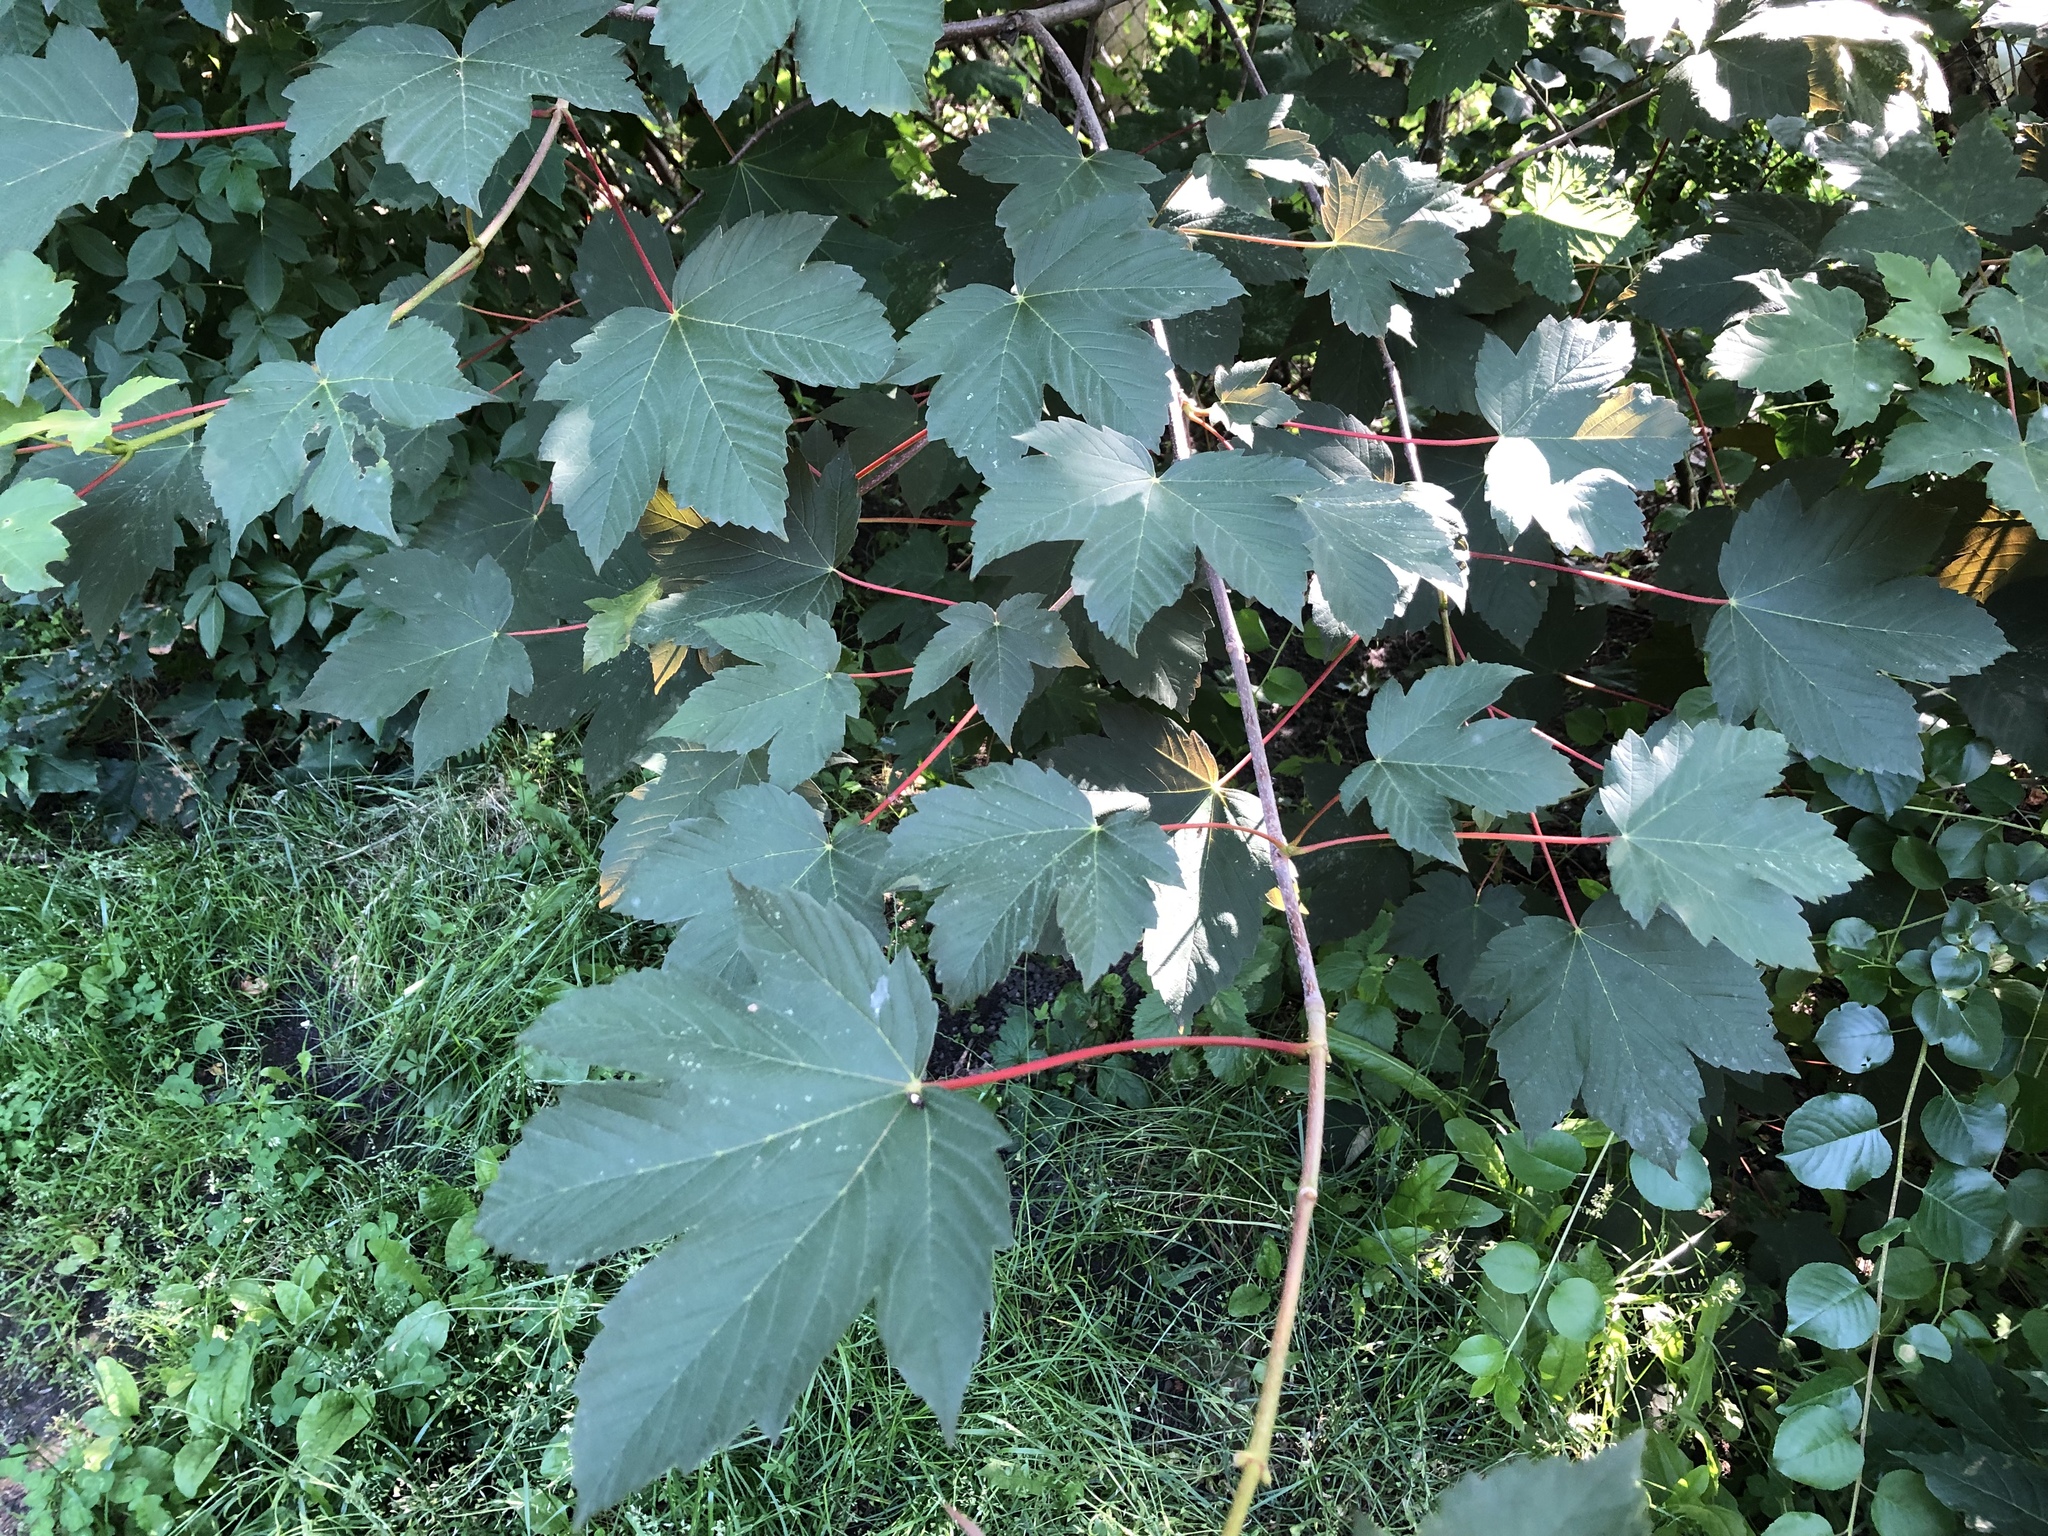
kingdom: Plantae
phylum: Tracheophyta
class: Magnoliopsida
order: Sapindales
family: Sapindaceae
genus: Acer
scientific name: Acer pseudoplatanus
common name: Sycamore
